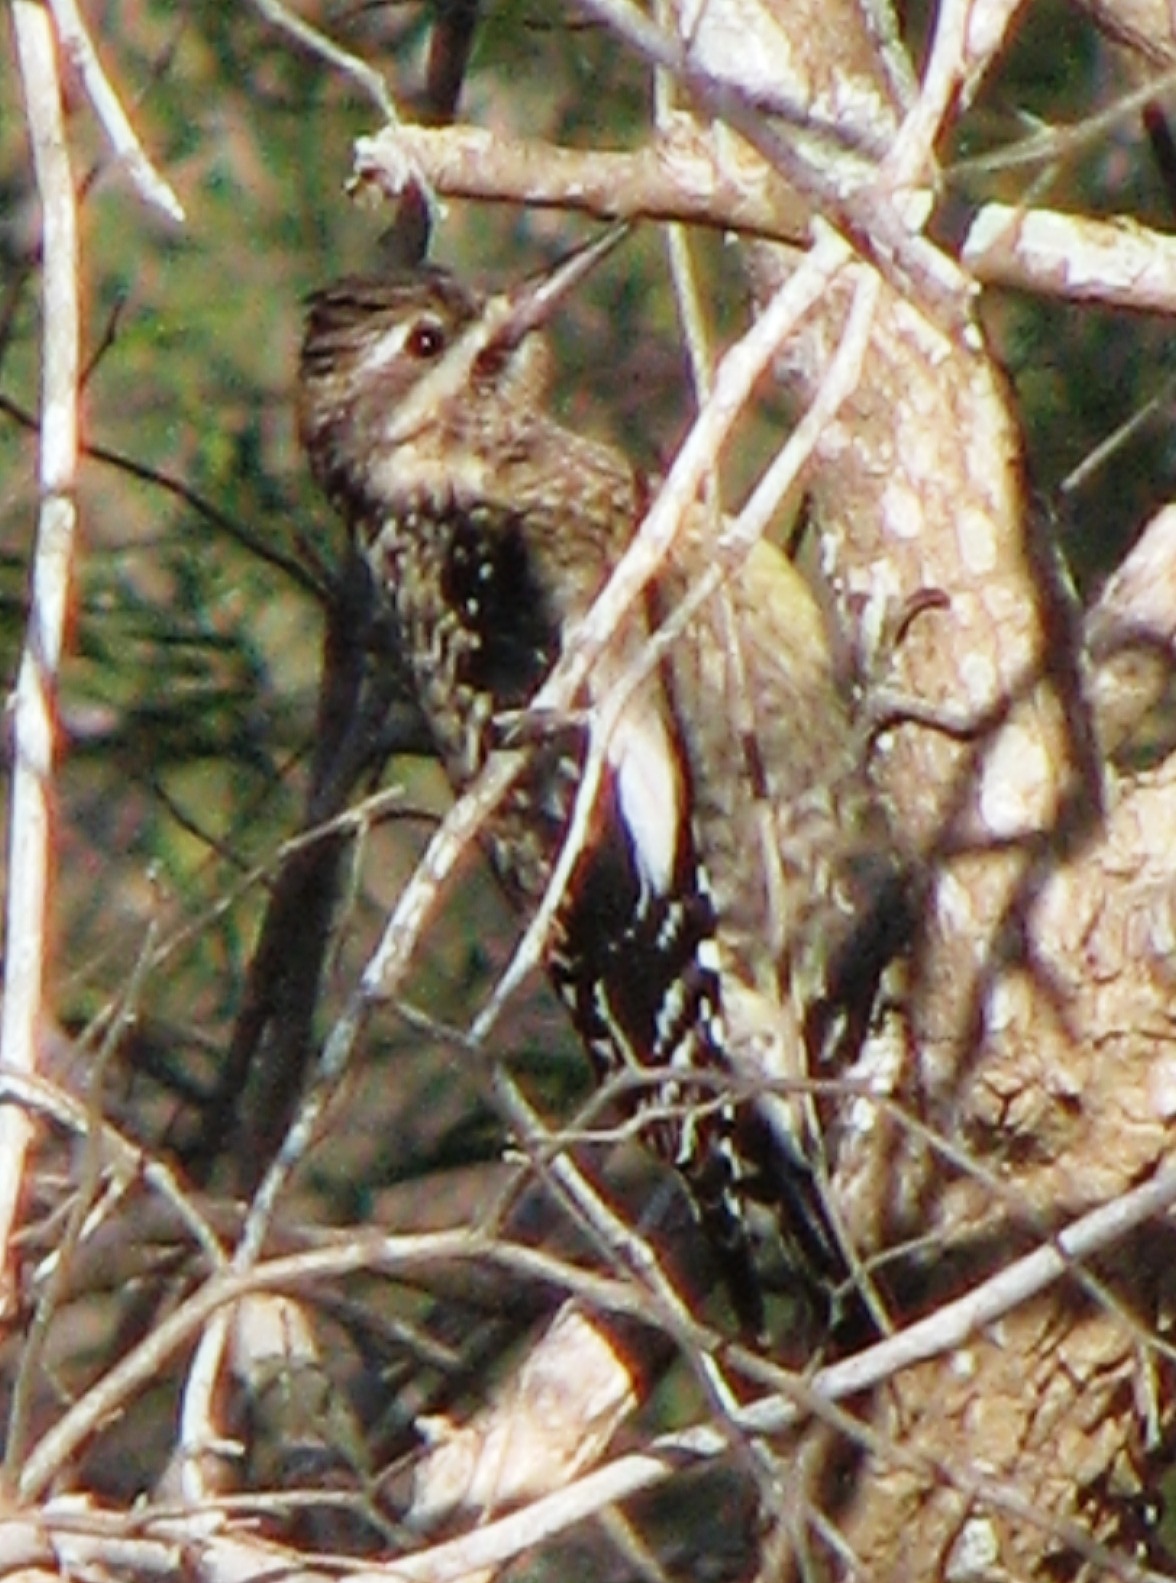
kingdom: Animalia
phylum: Chordata
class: Aves
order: Piciformes
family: Picidae
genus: Sphyrapicus
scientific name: Sphyrapicus varius
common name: Yellow-bellied sapsucker
